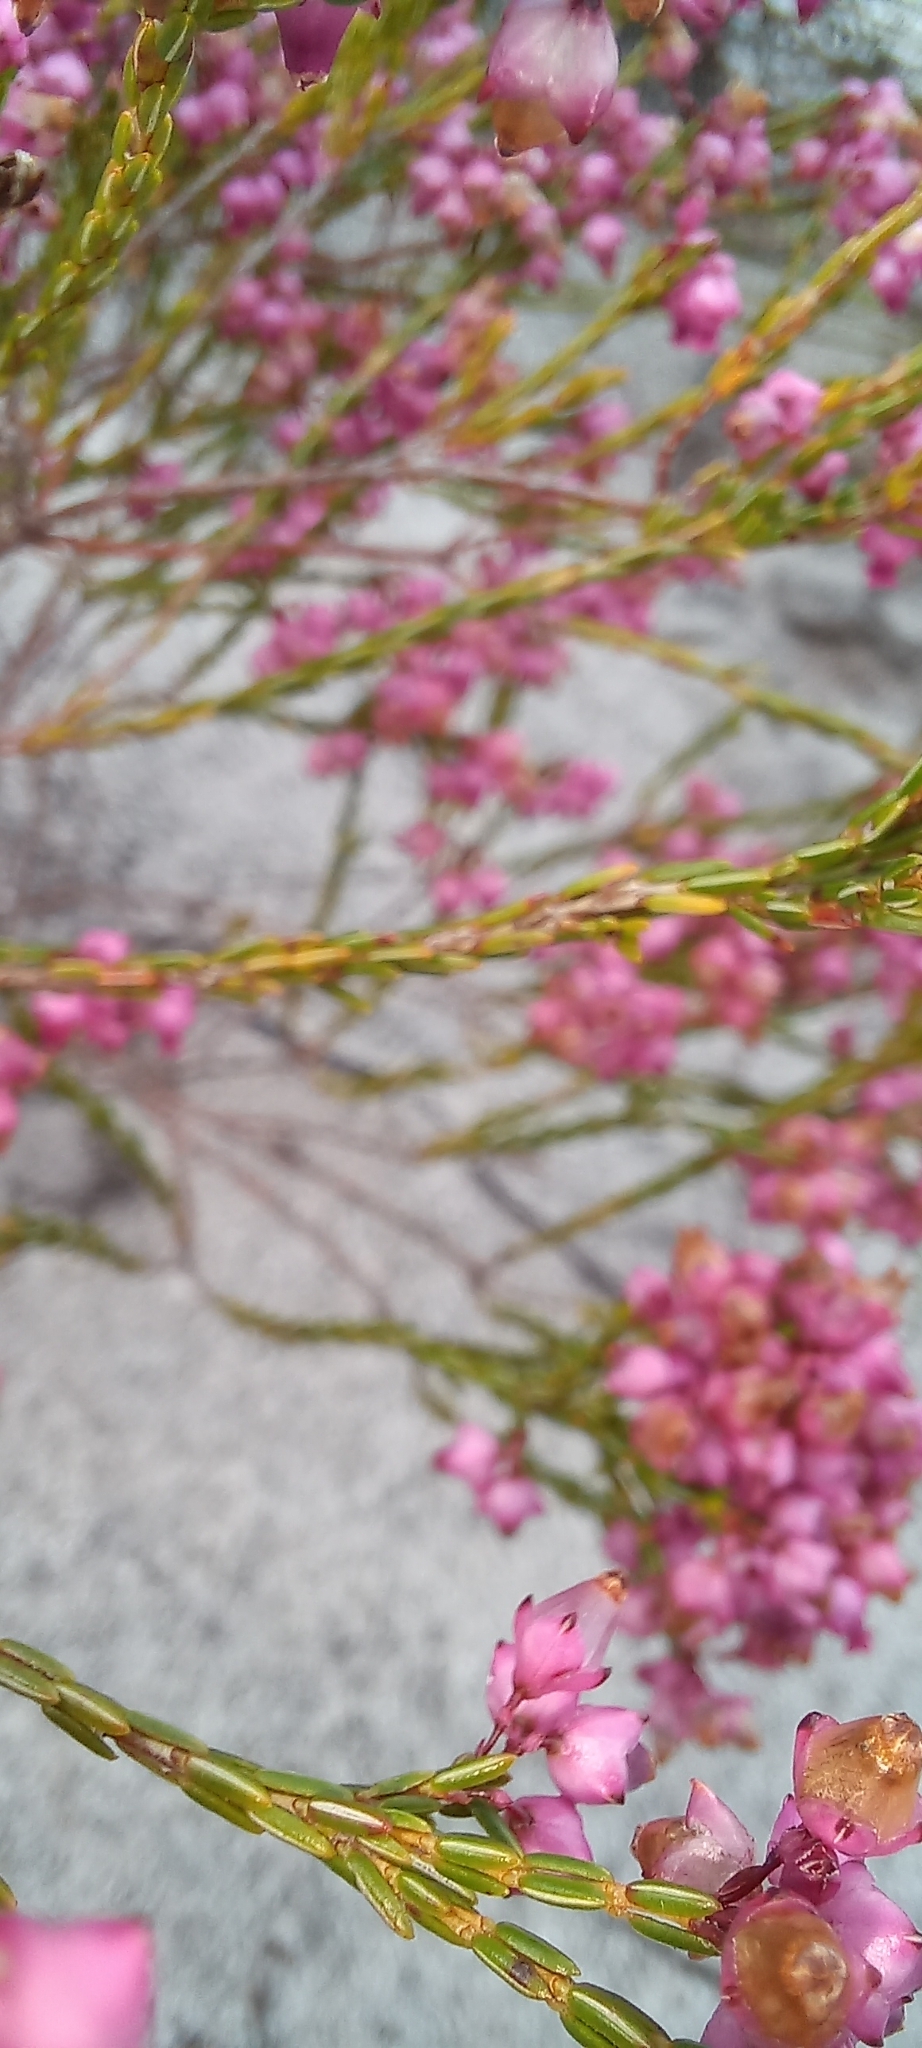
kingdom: Plantae
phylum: Tracheophyta
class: Magnoliopsida
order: Ericales
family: Ericaceae
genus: Erica
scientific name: Erica rhopalantha
